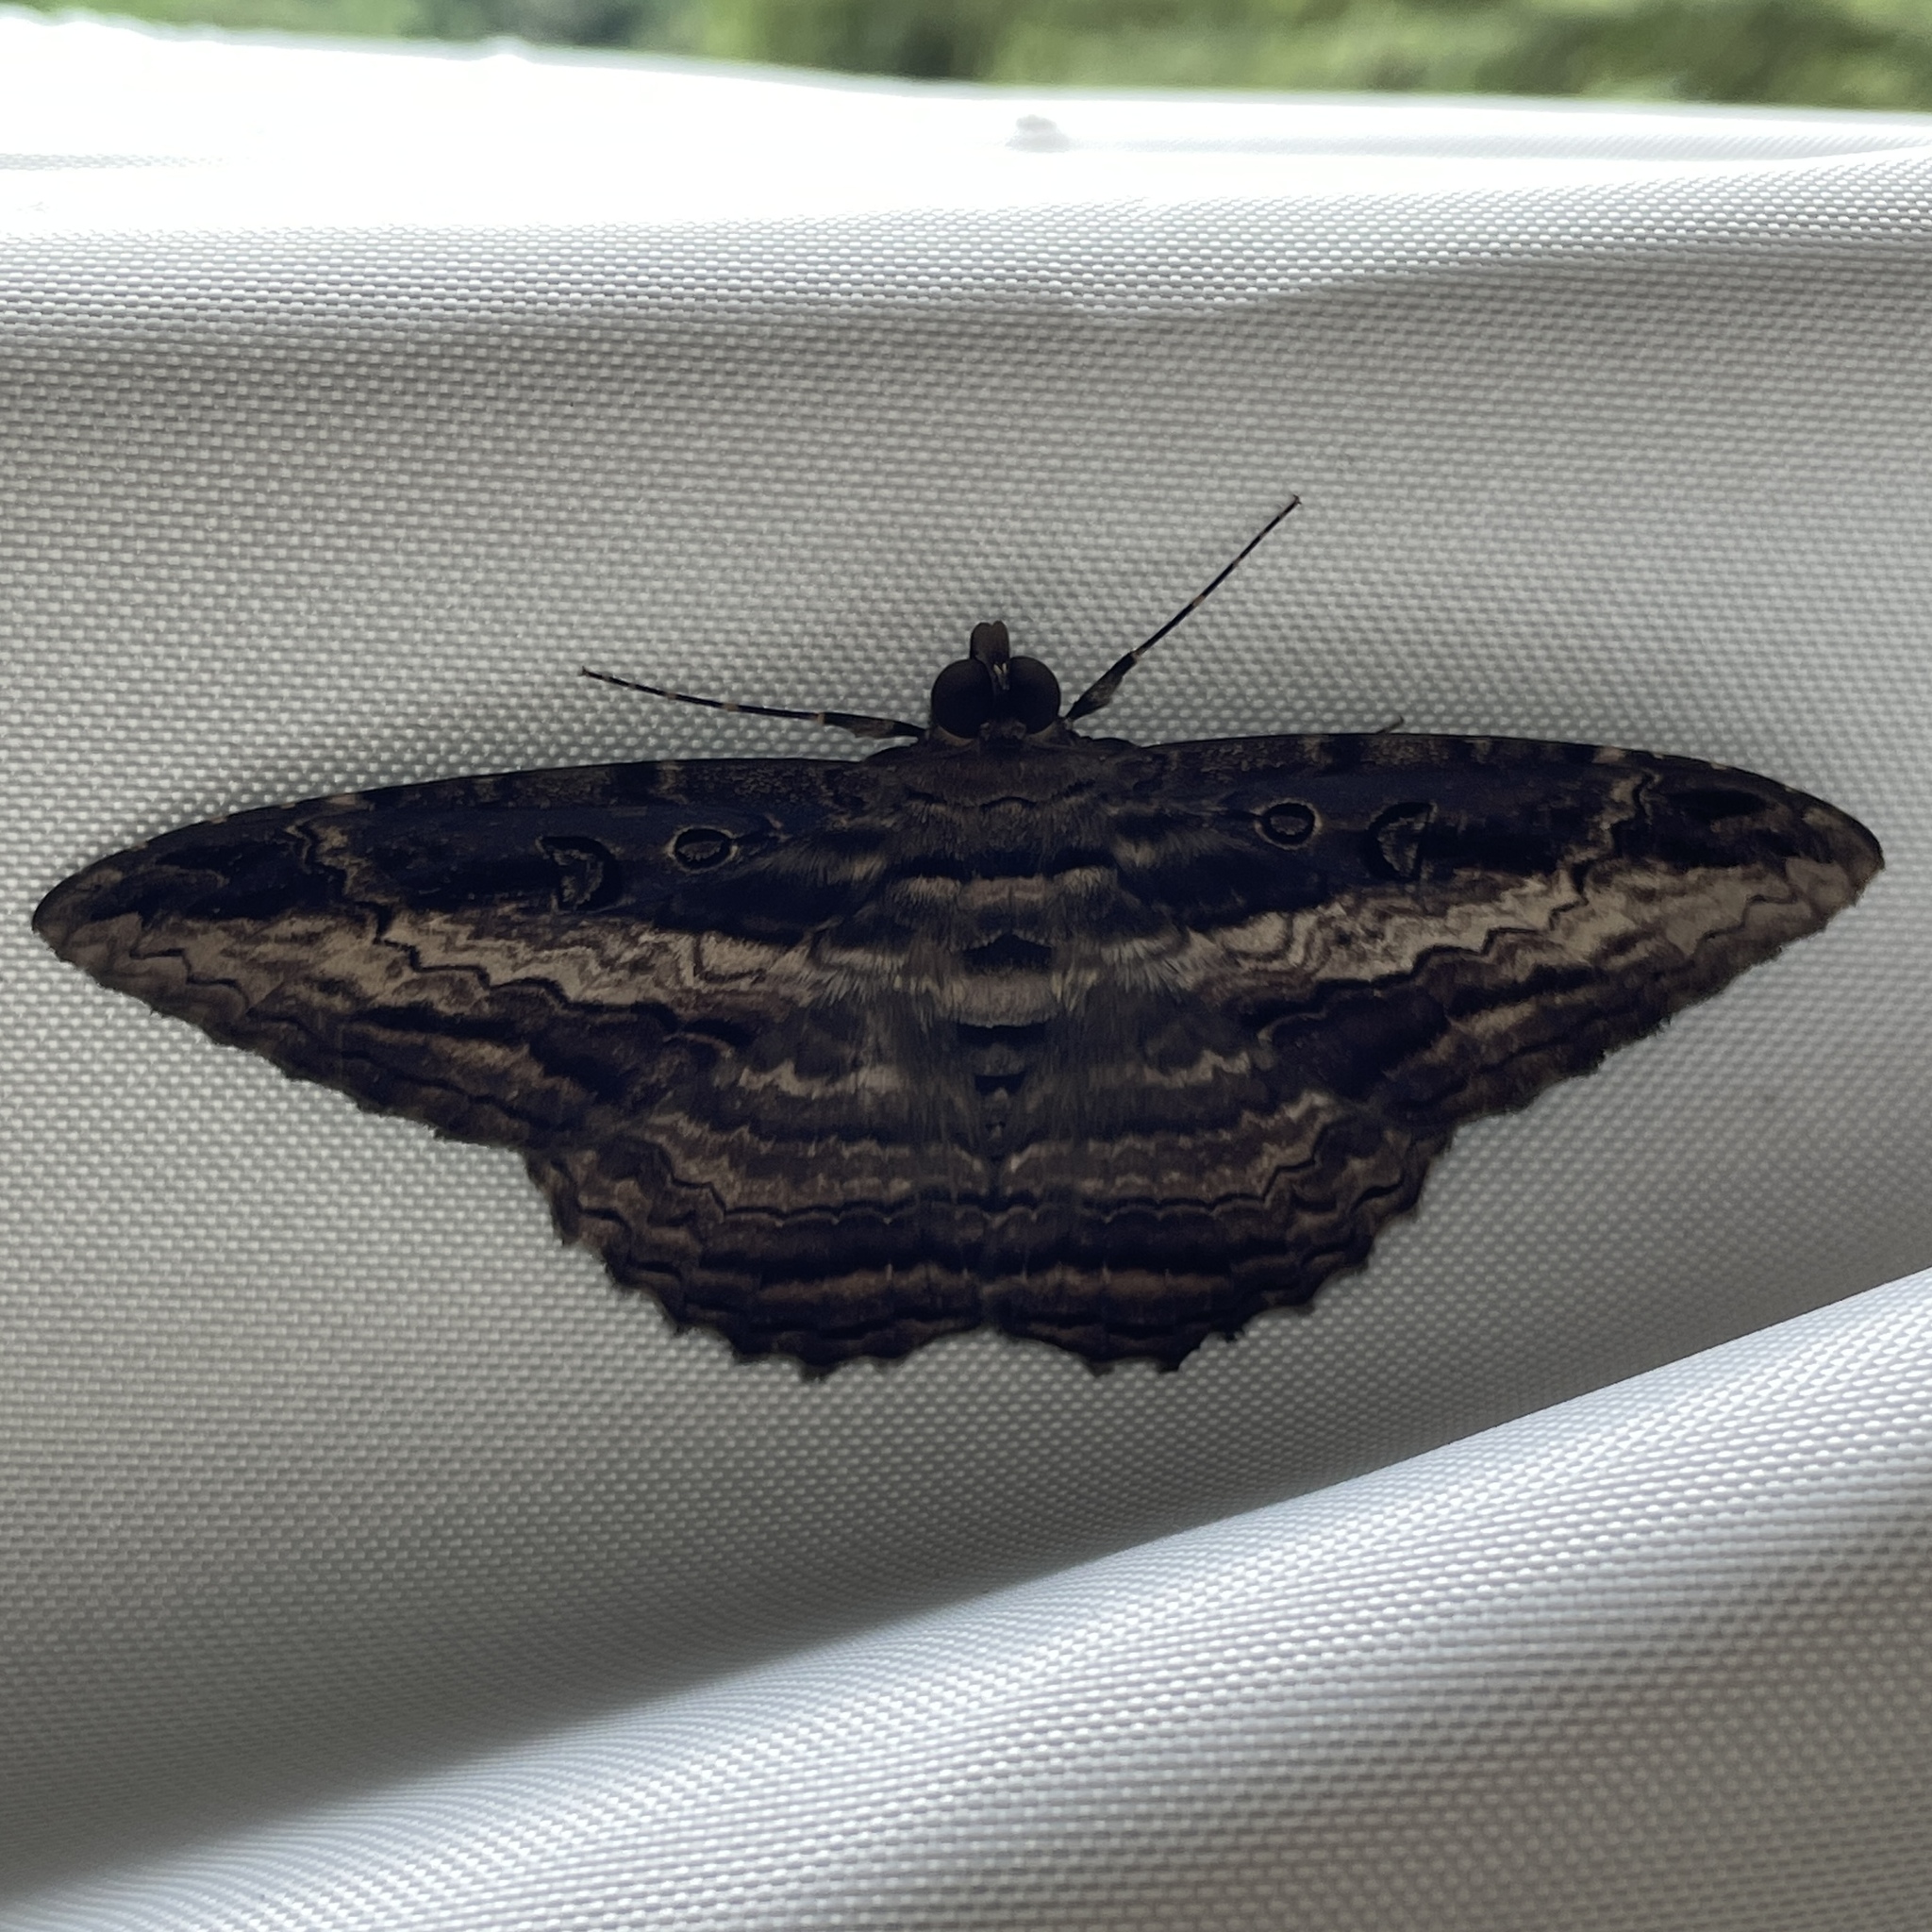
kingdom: Animalia
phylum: Arthropoda
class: Insecta
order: Lepidoptera
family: Erebidae
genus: Feigeria
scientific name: Feigeria buteo
